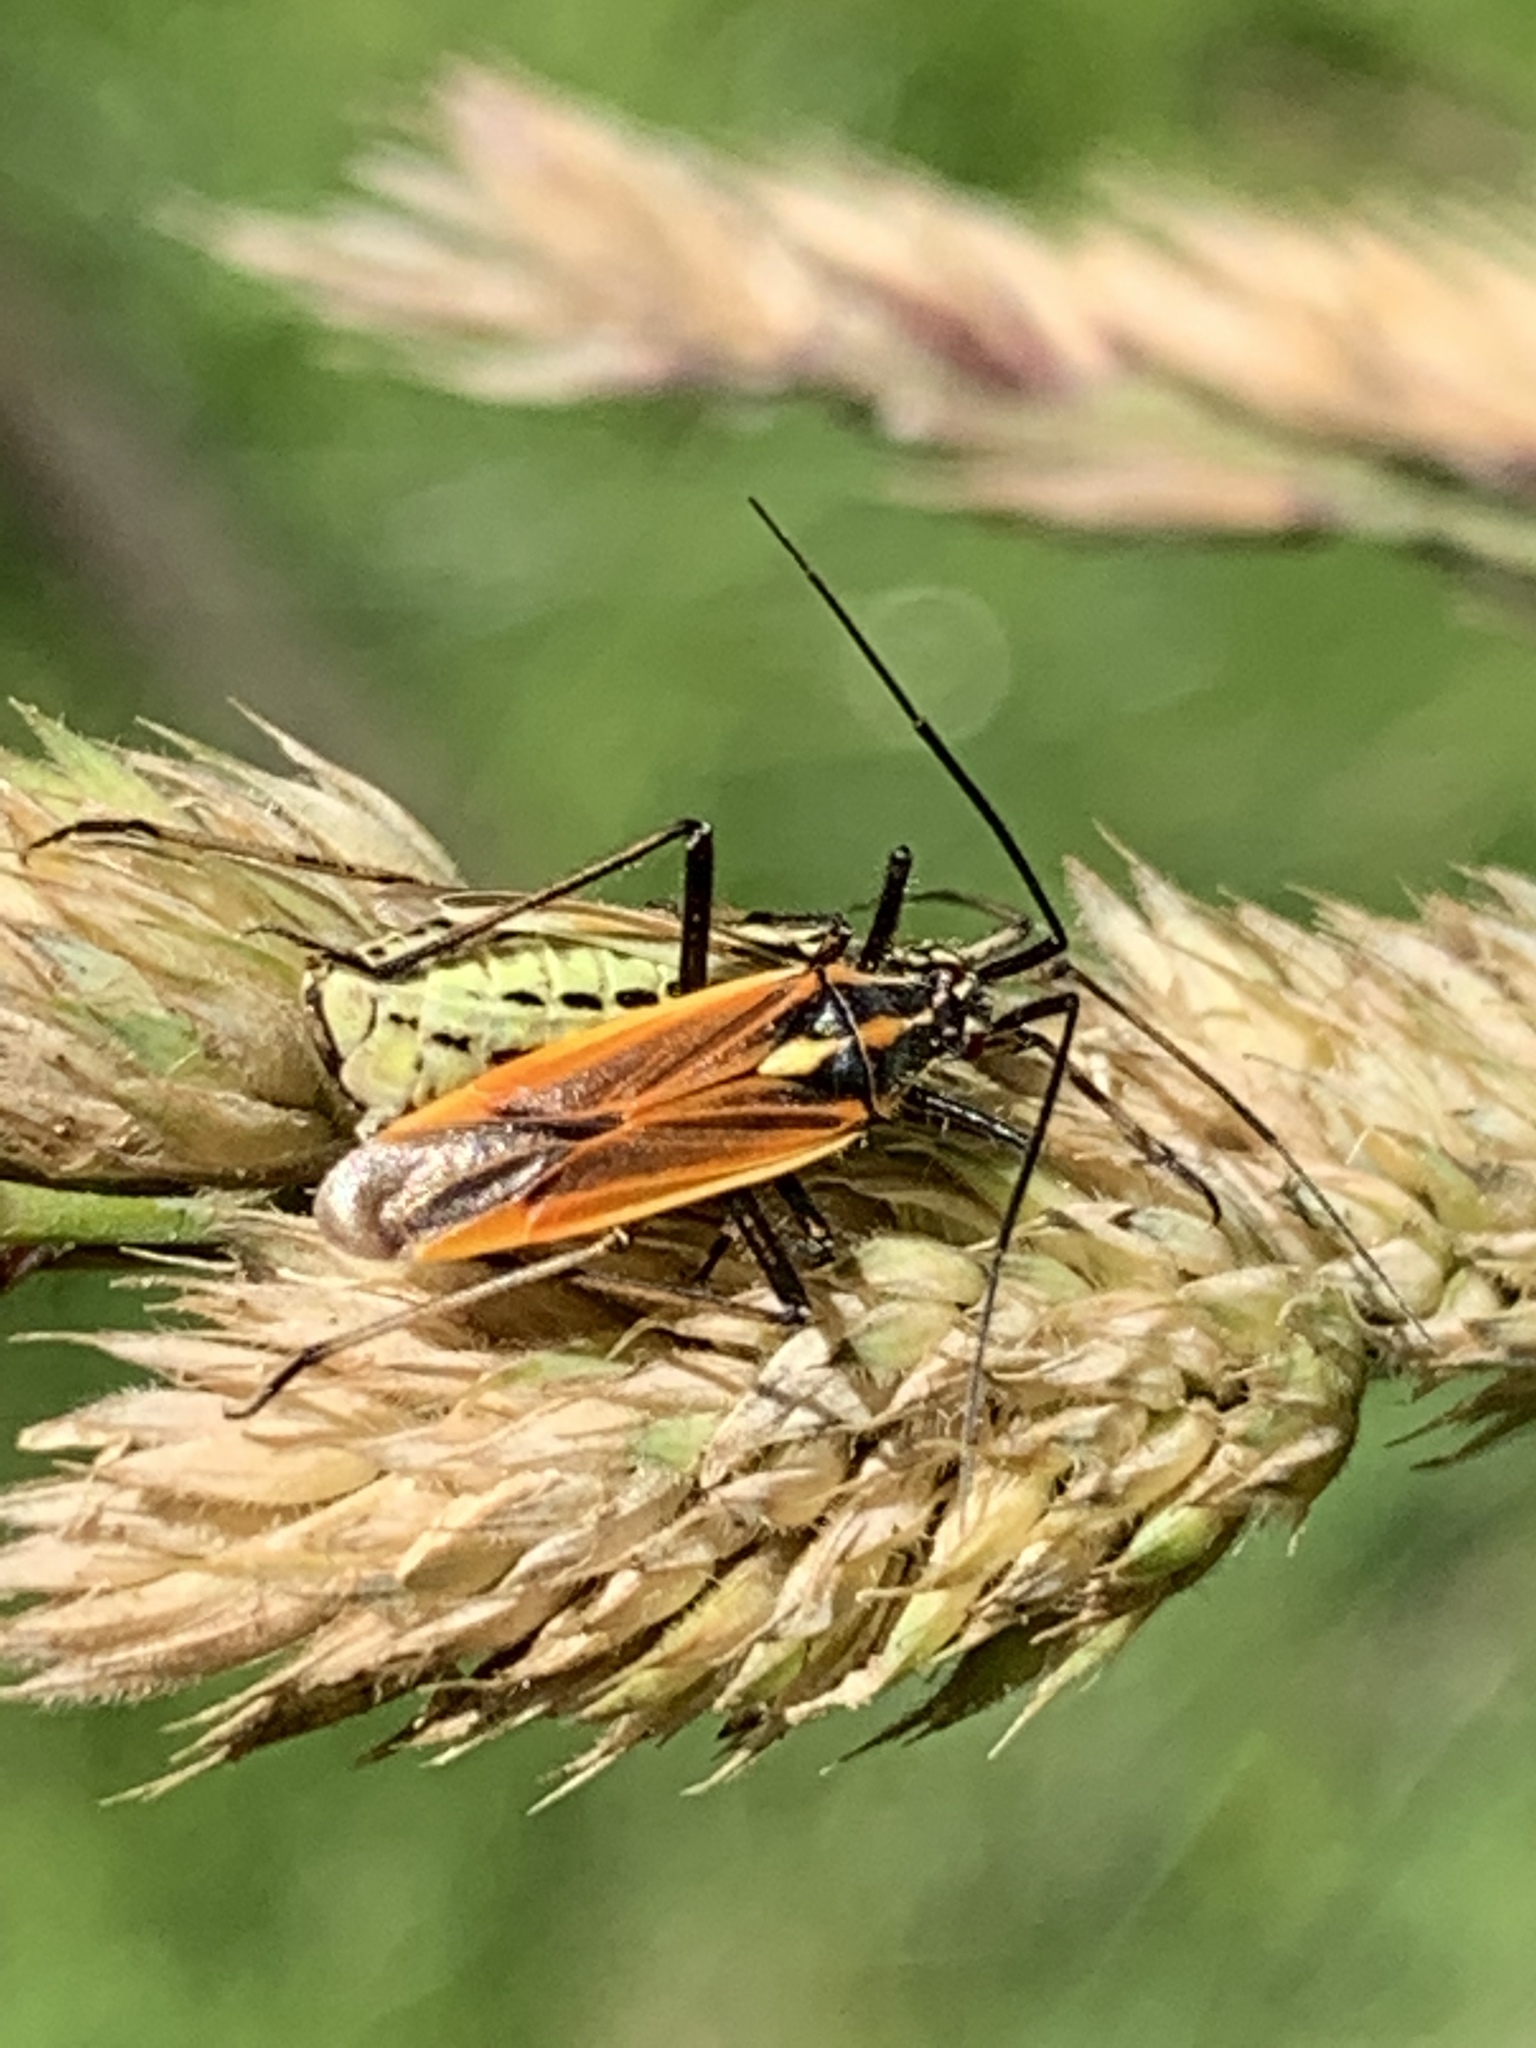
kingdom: Animalia
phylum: Arthropoda
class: Insecta
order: Hemiptera
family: Miridae
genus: Leptopterna
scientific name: Leptopterna dolabrata
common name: Meadow plant bug
